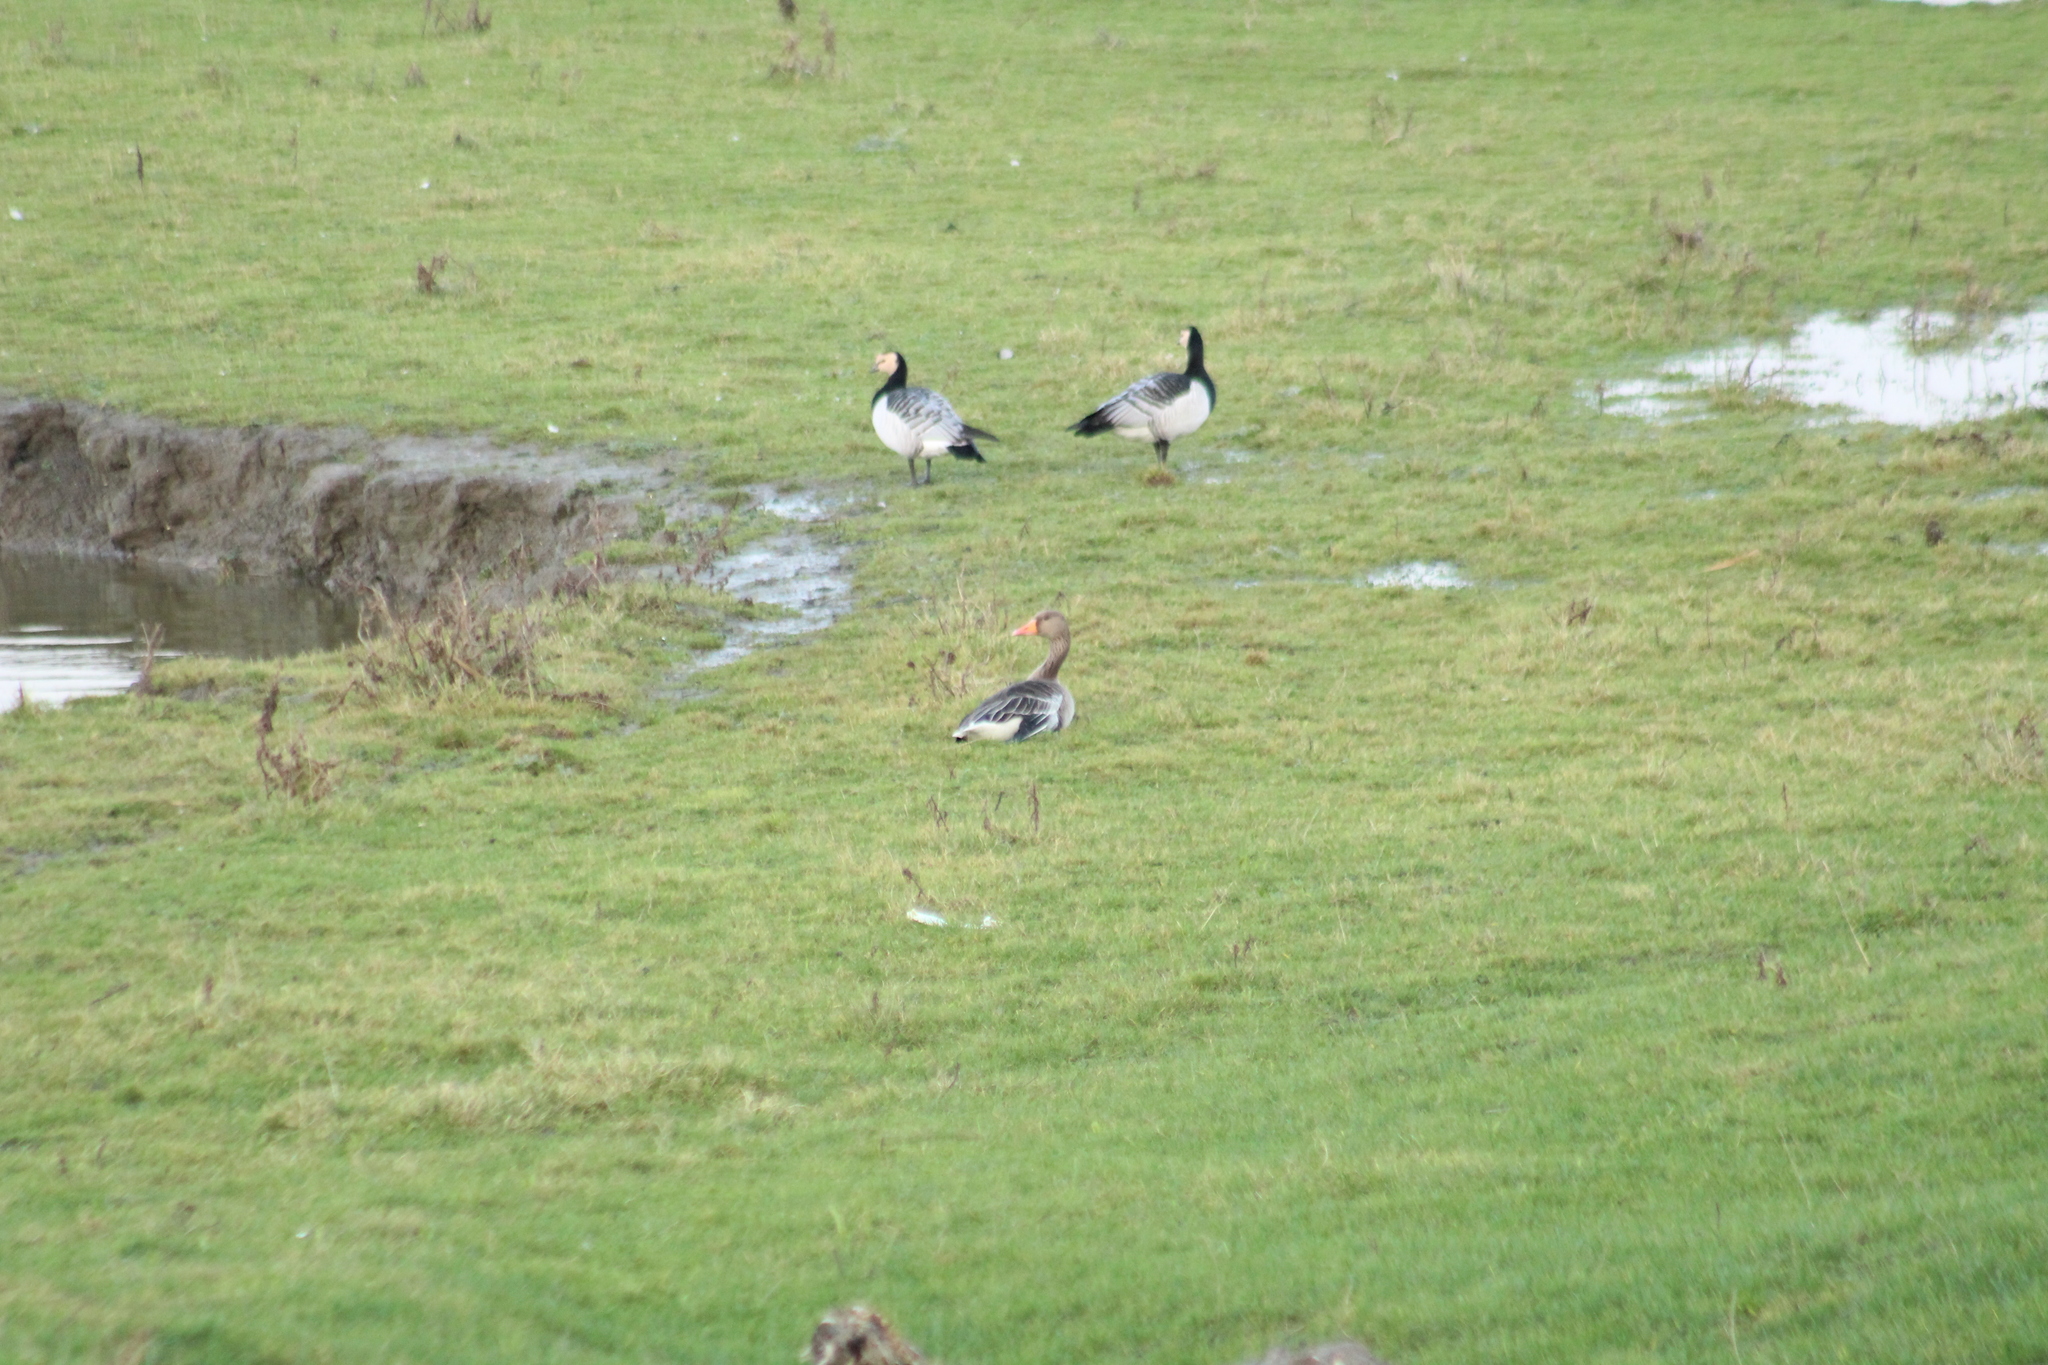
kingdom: Animalia
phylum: Chordata
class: Aves
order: Anseriformes
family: Anatidae
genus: Anser
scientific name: Anser anser
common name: Greylag goose
